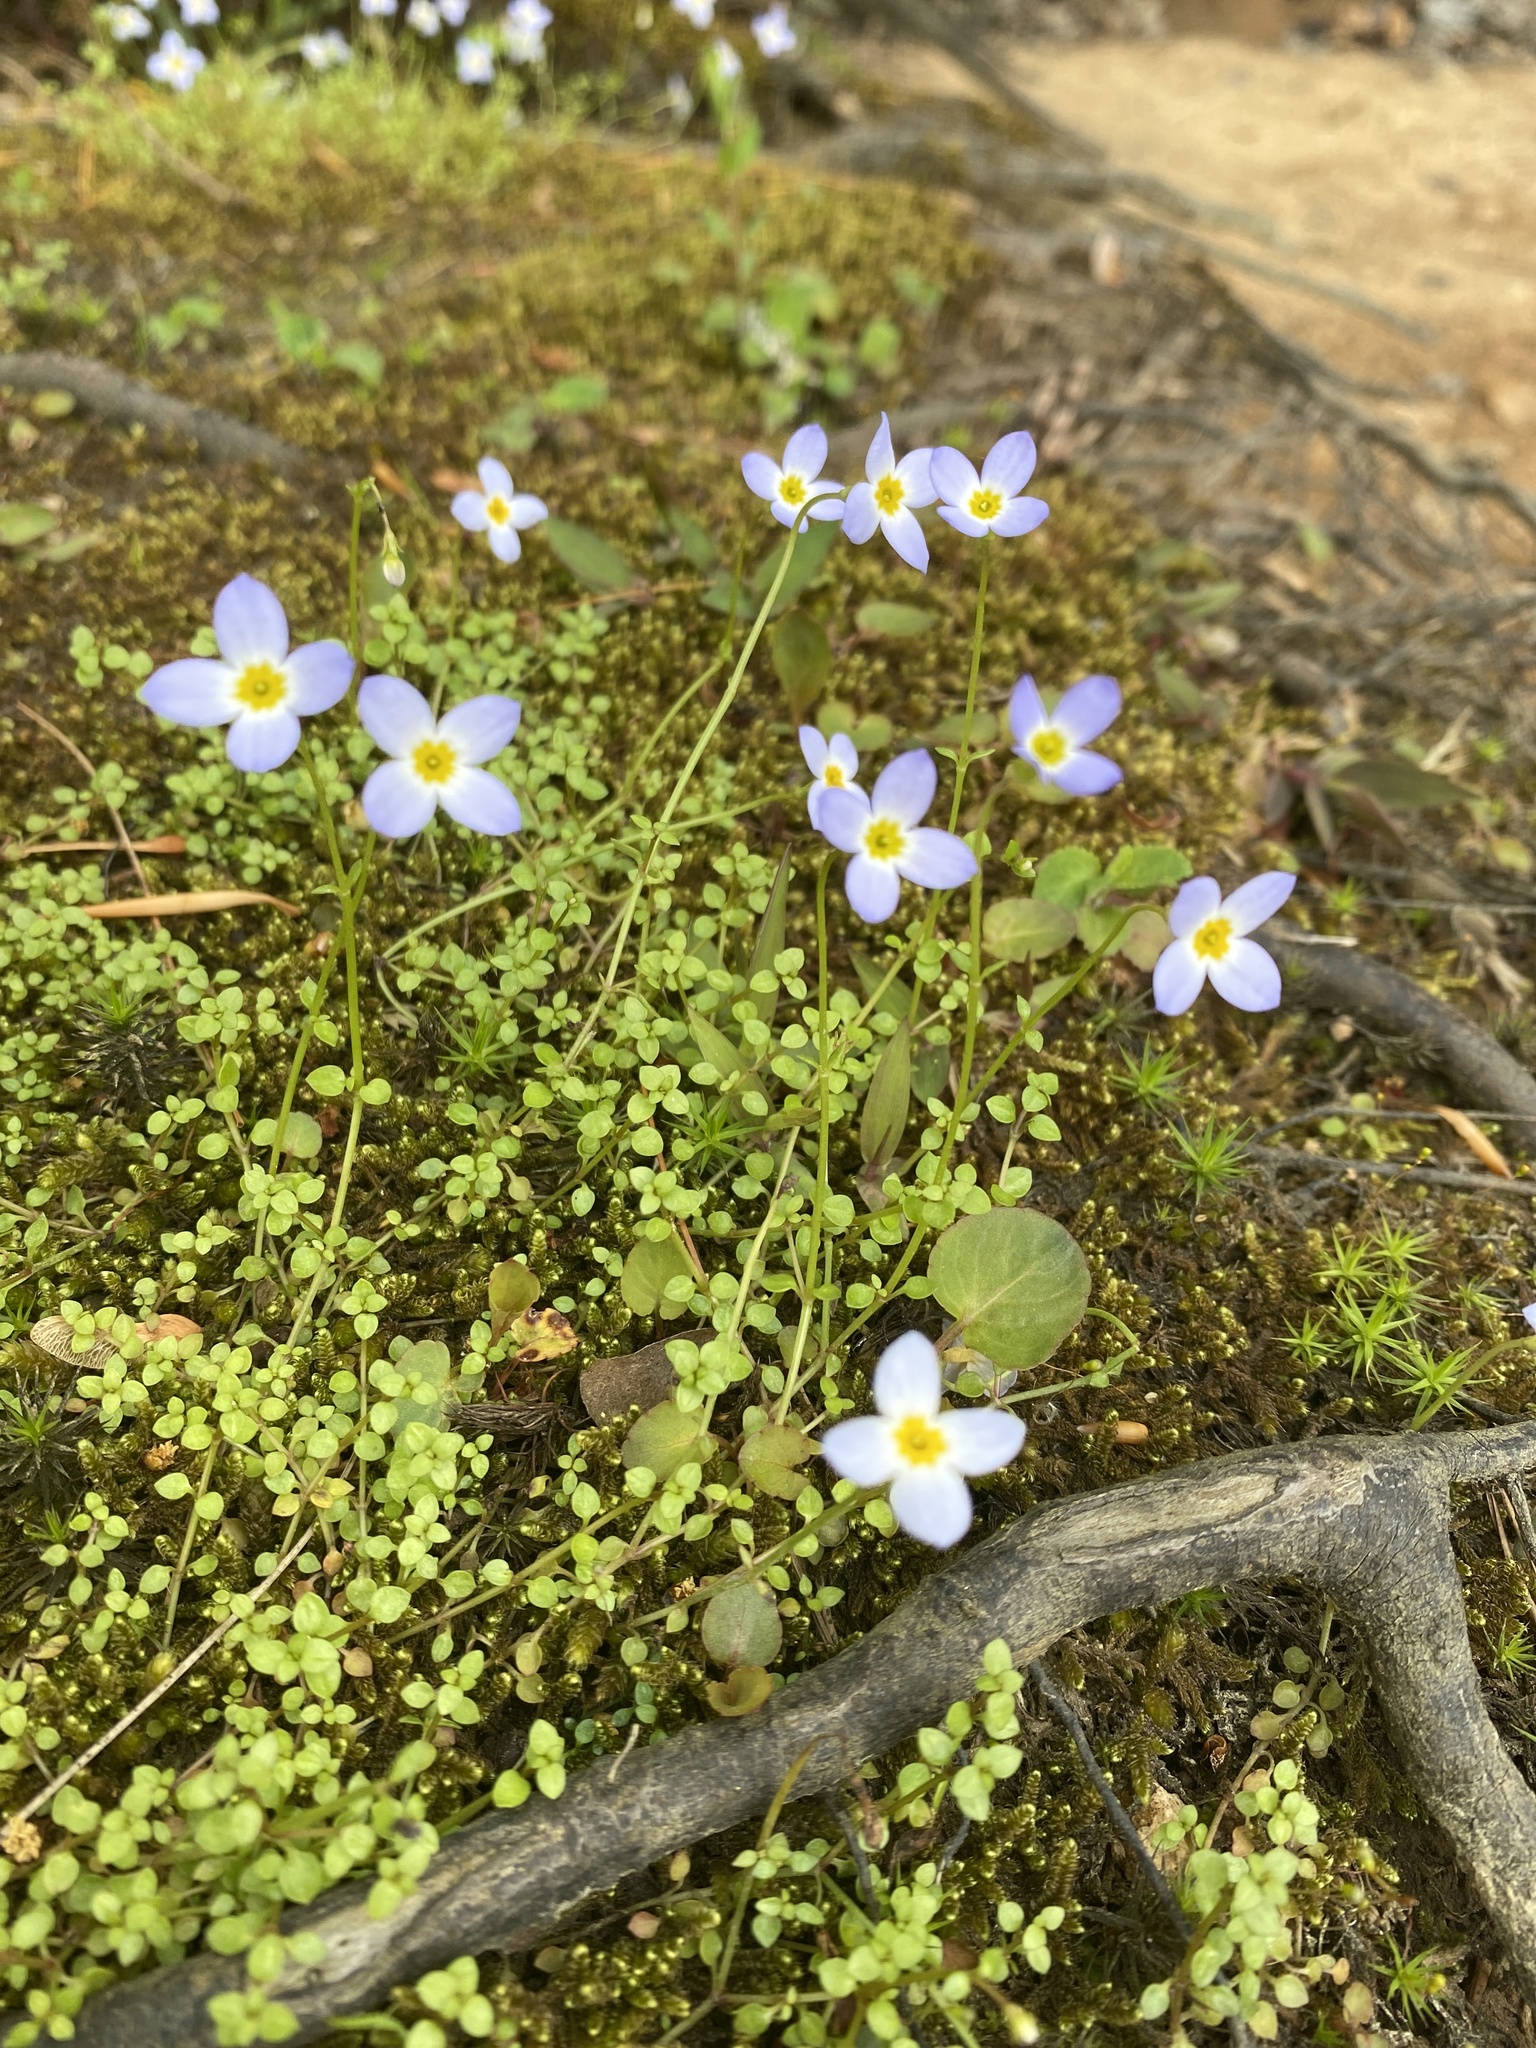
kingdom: Plantae
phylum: Tracheophyta
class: Magnoliopsida
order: Gentianales
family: Rubiaceae
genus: Houstonia
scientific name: Houstonia serpyllifolia
